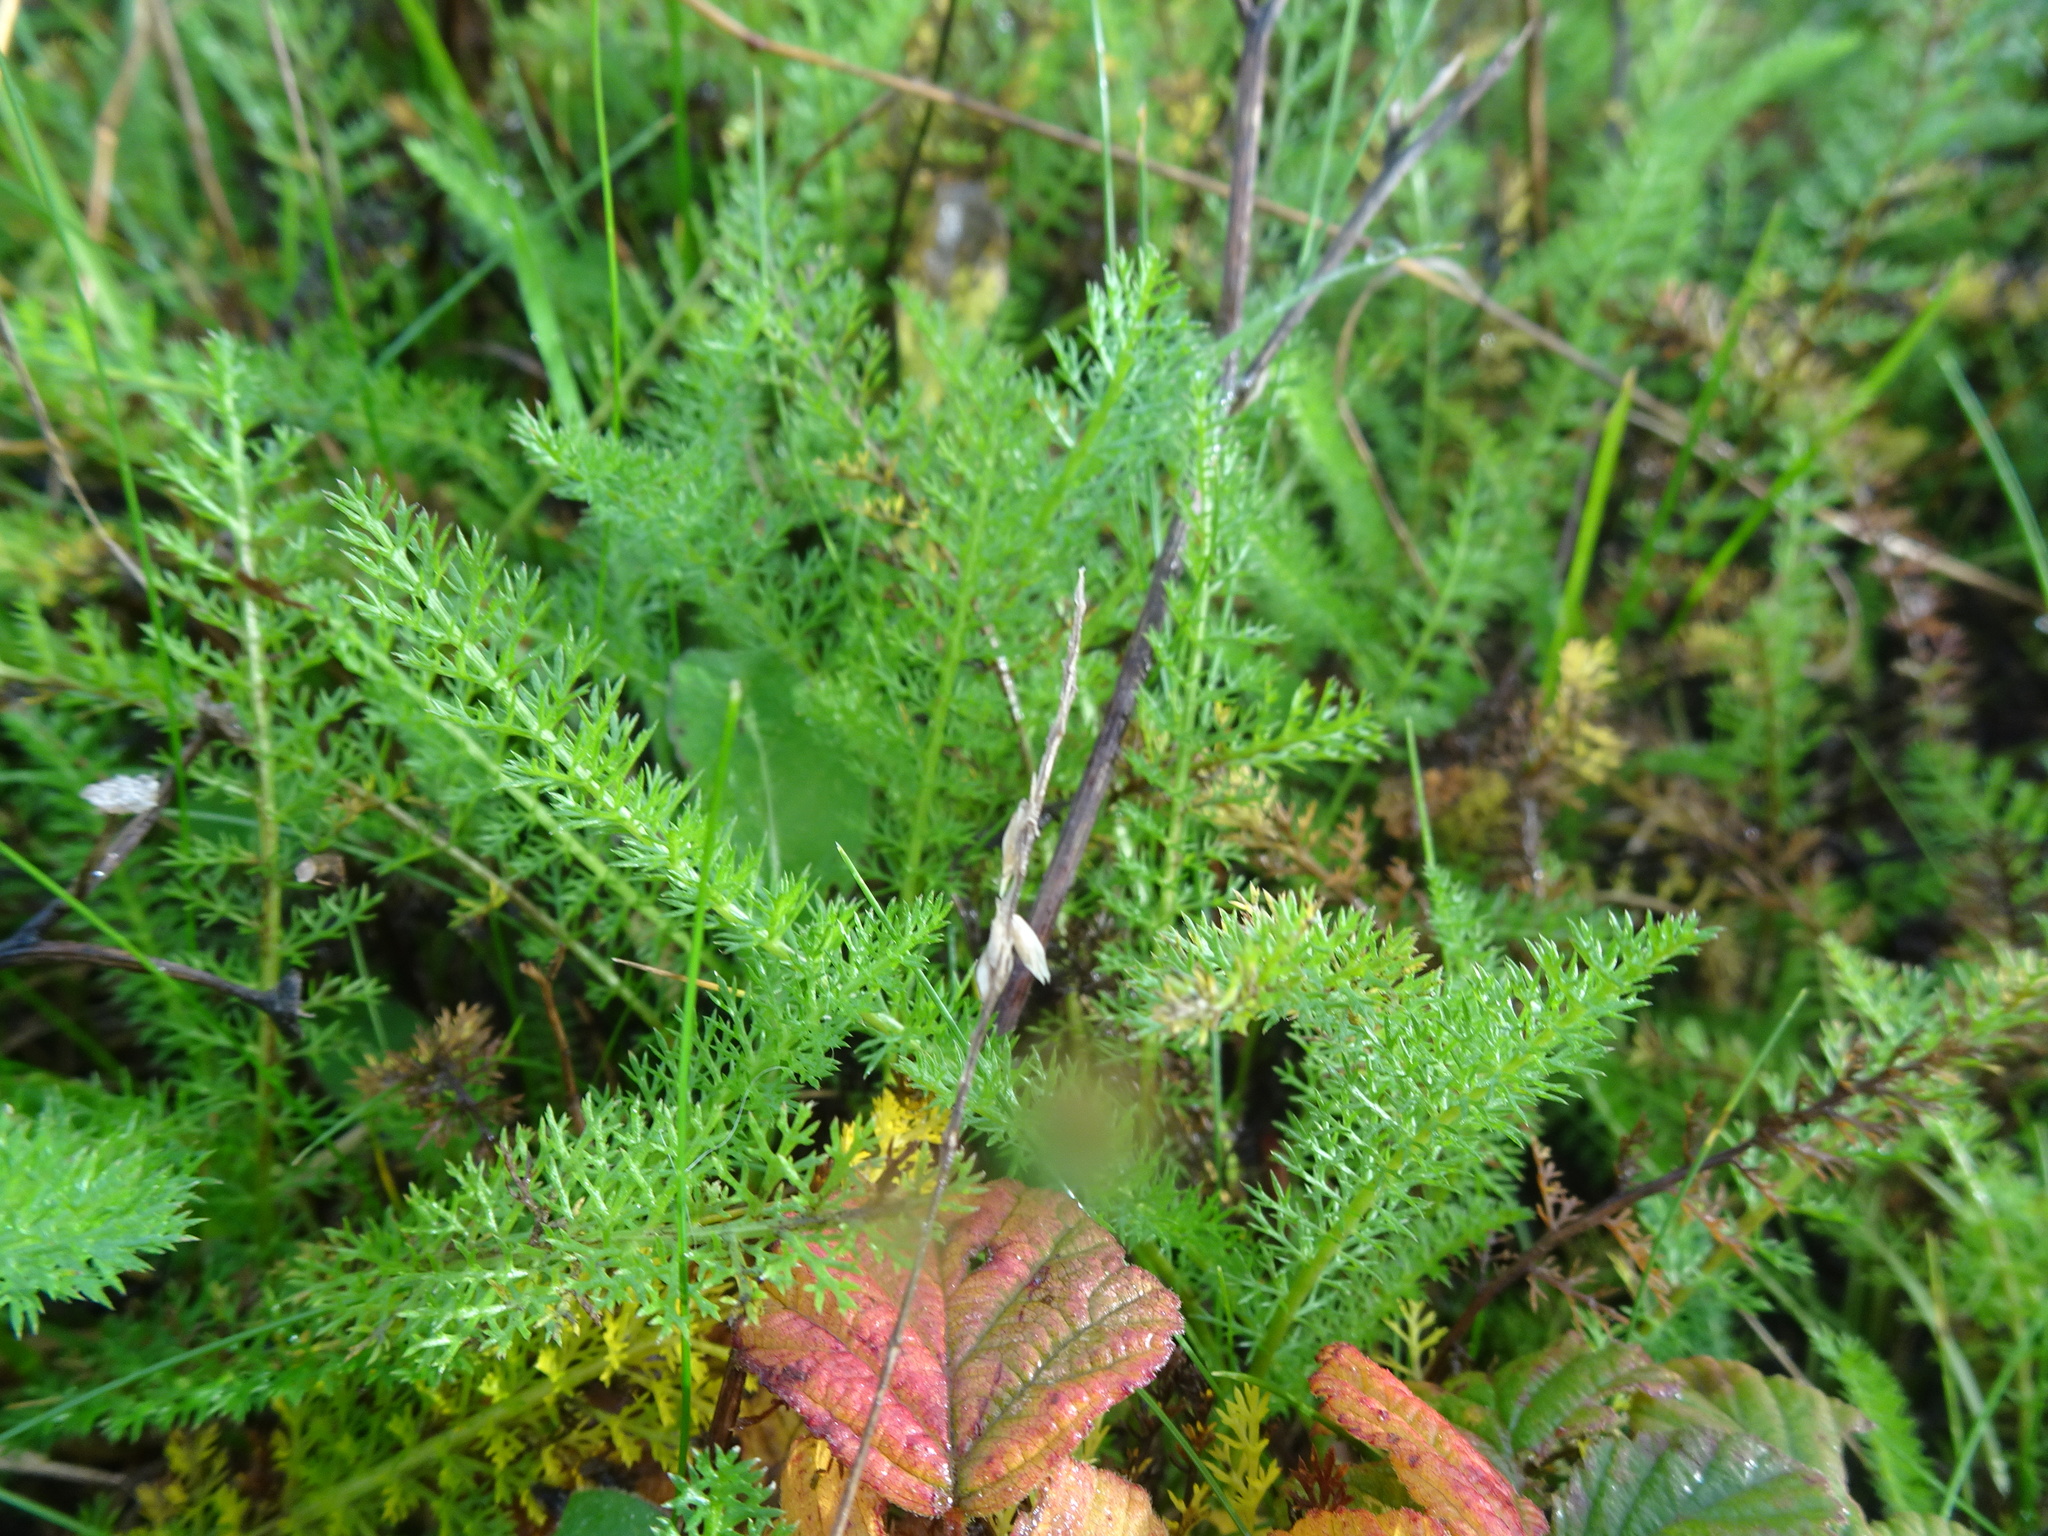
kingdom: Plantae
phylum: Tracheophyta
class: Magnoliopsida
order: Asterales
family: Asteraceae
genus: Achillea
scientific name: Achillea millefolium
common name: Yarrow
